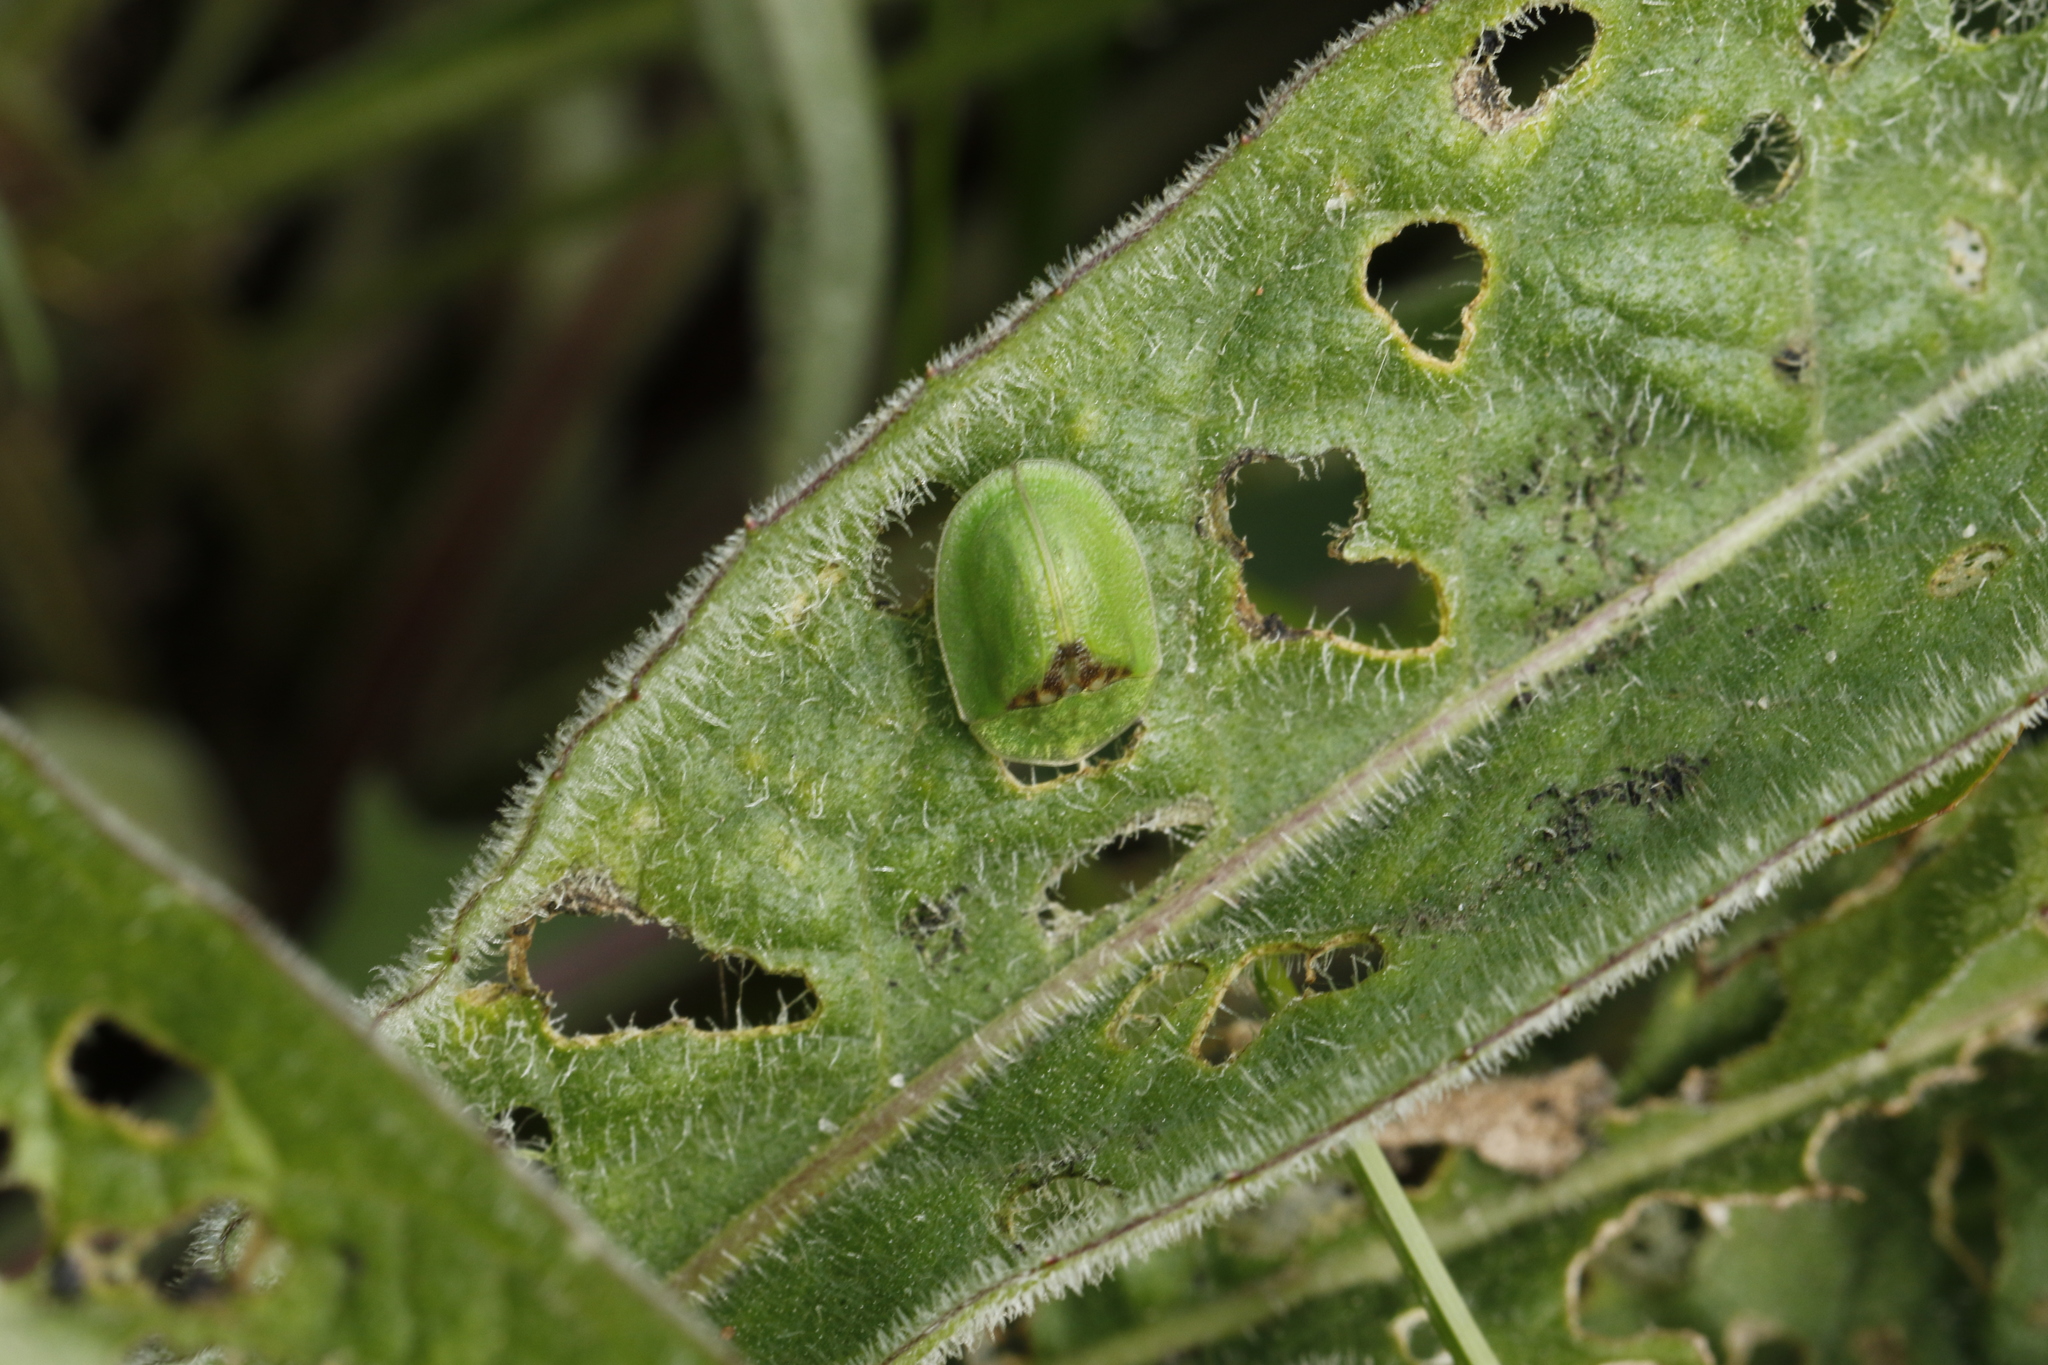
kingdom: Animalia
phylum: Arthropoda
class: Insecta
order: Coleoptera
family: Chrysomelidae
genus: Cassida
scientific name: Cassida rubiginosa
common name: Thistle tortoise beetle
